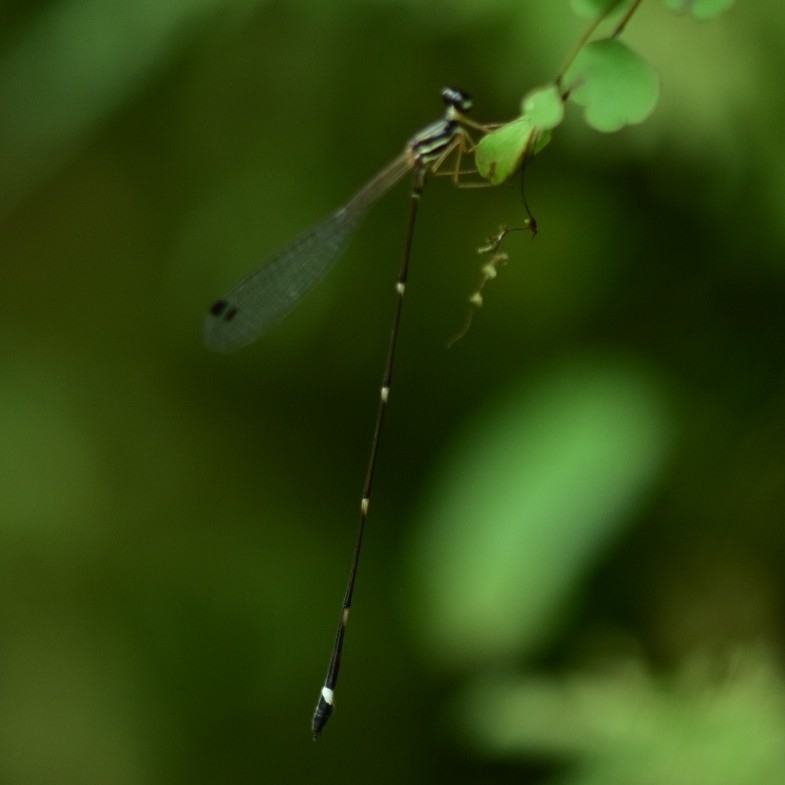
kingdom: Animalia
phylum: Arthropoda
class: Insecta
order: Odonata
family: Platystictidae
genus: Protosticta
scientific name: Protosticta gravelyi
